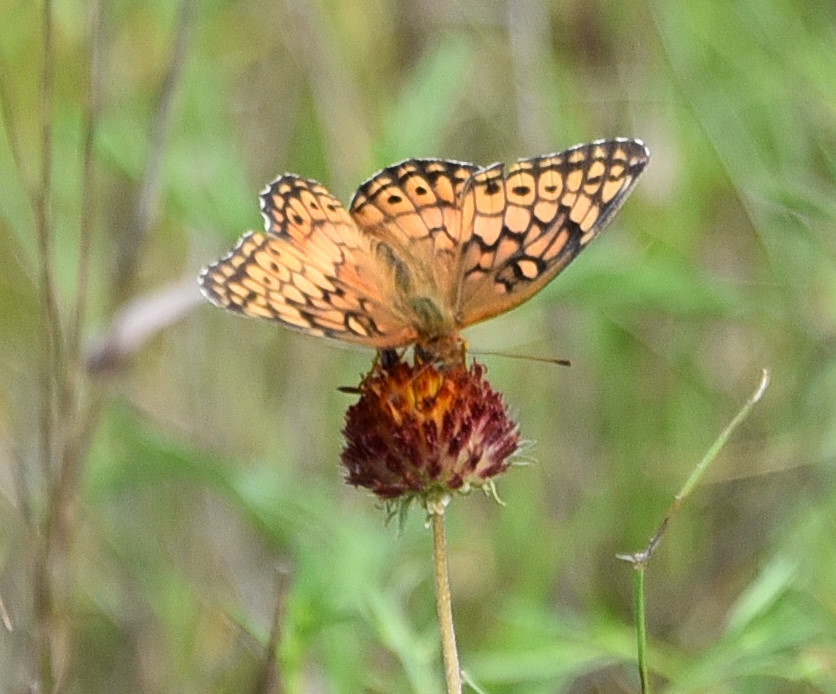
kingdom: Animalia
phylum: Arthropoda
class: Insecta
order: Lepidoptera
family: Nymphalidae
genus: Euptoieta
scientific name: Euptoieta claudia
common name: Variegated fritillary
